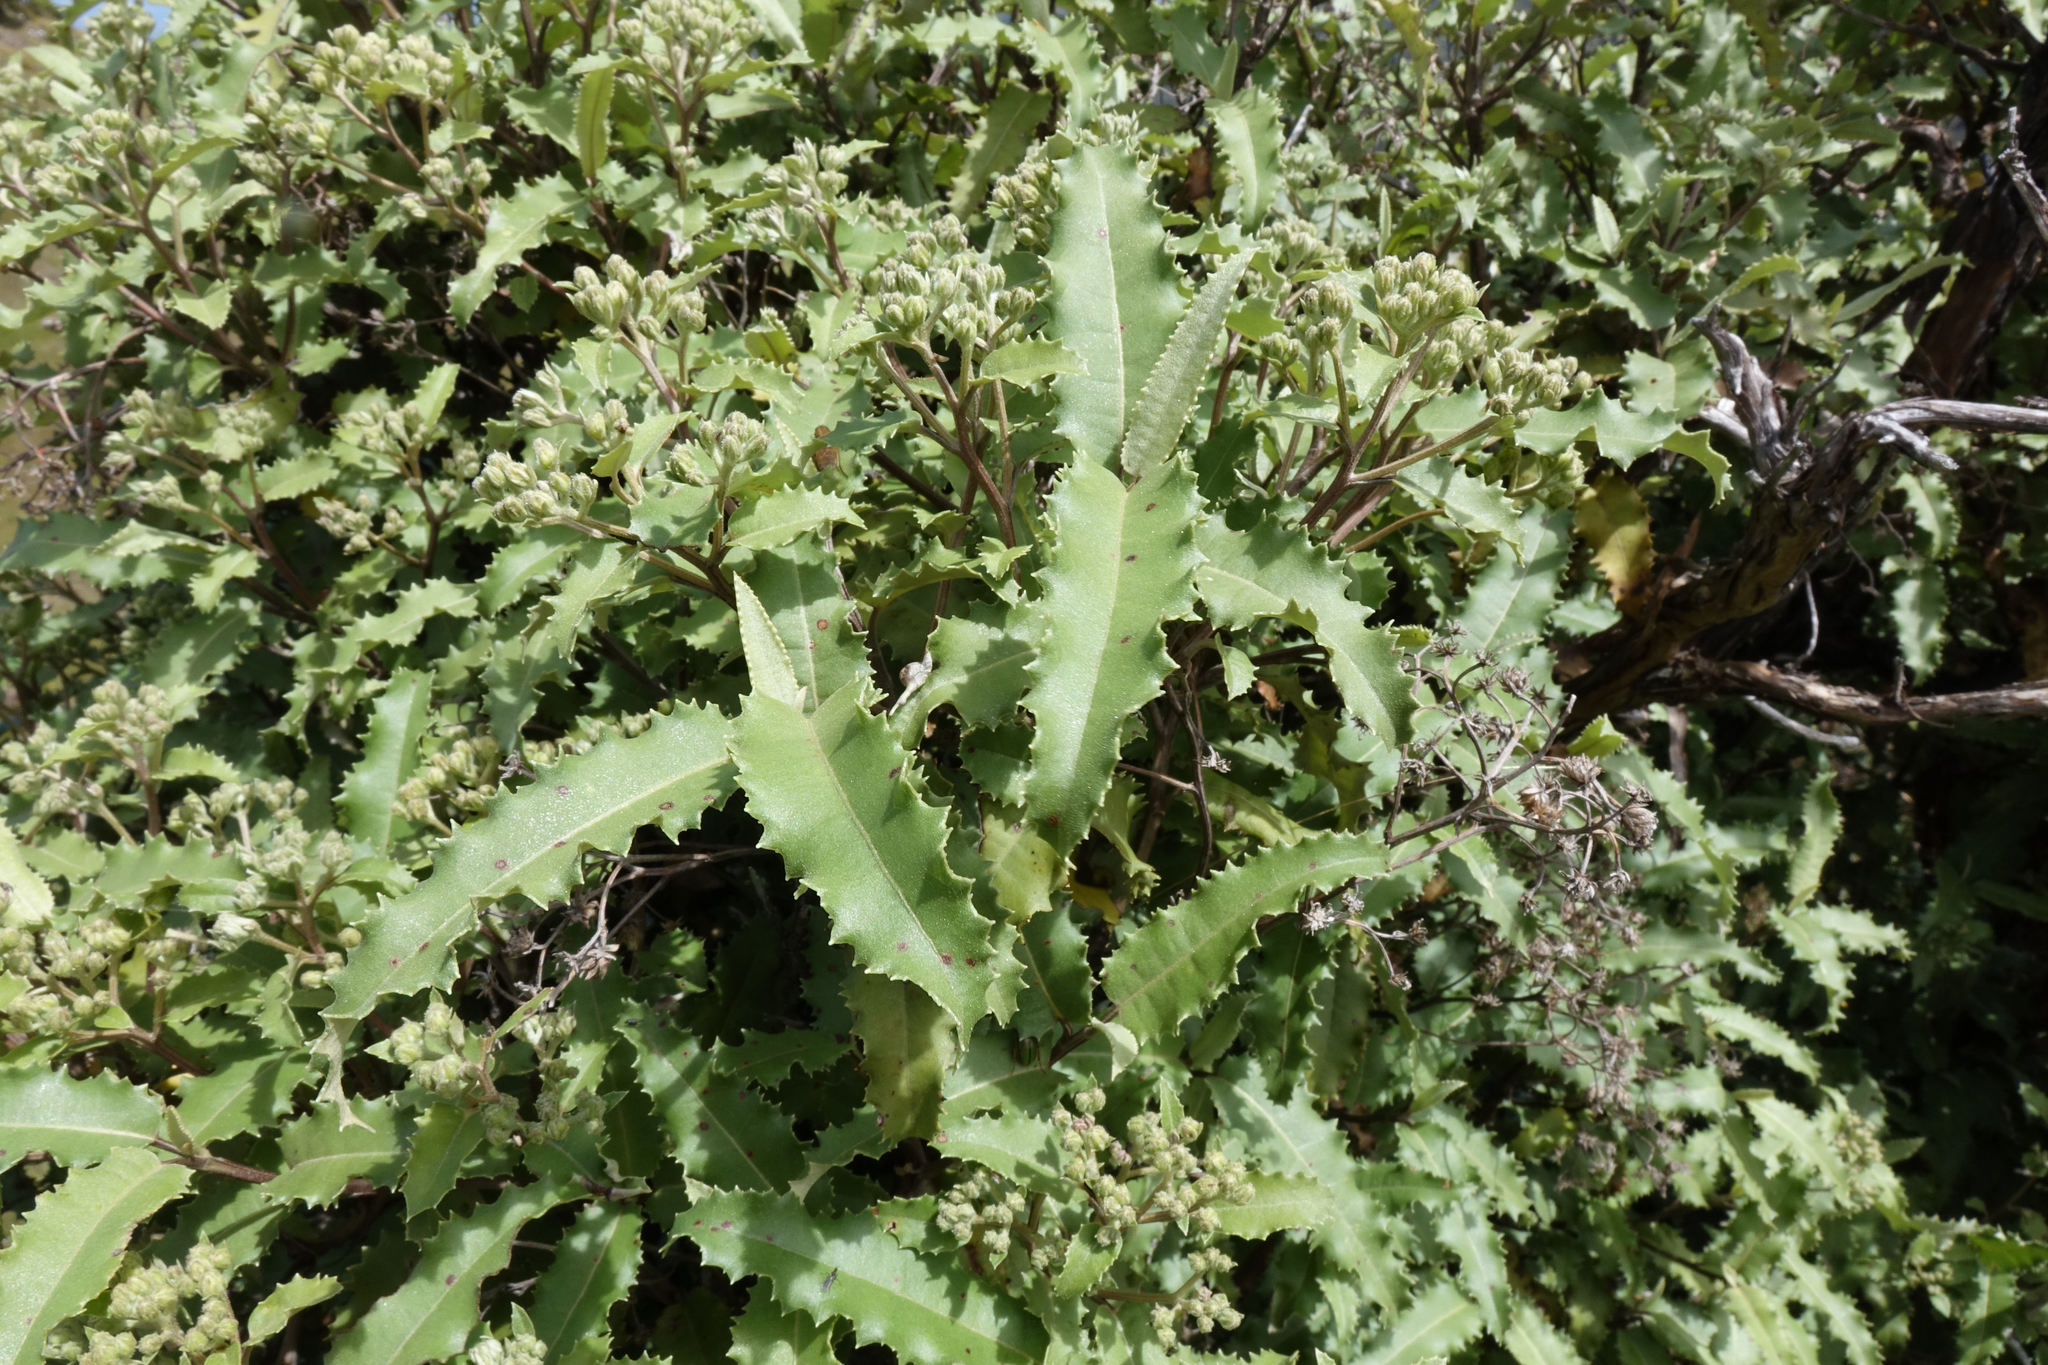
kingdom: Plantae
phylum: Tracheophyta
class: Magnoliopsida
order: Asterales
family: Asteraceae
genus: Olearia
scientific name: Olearia ilicifolia
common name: Maori-holly
